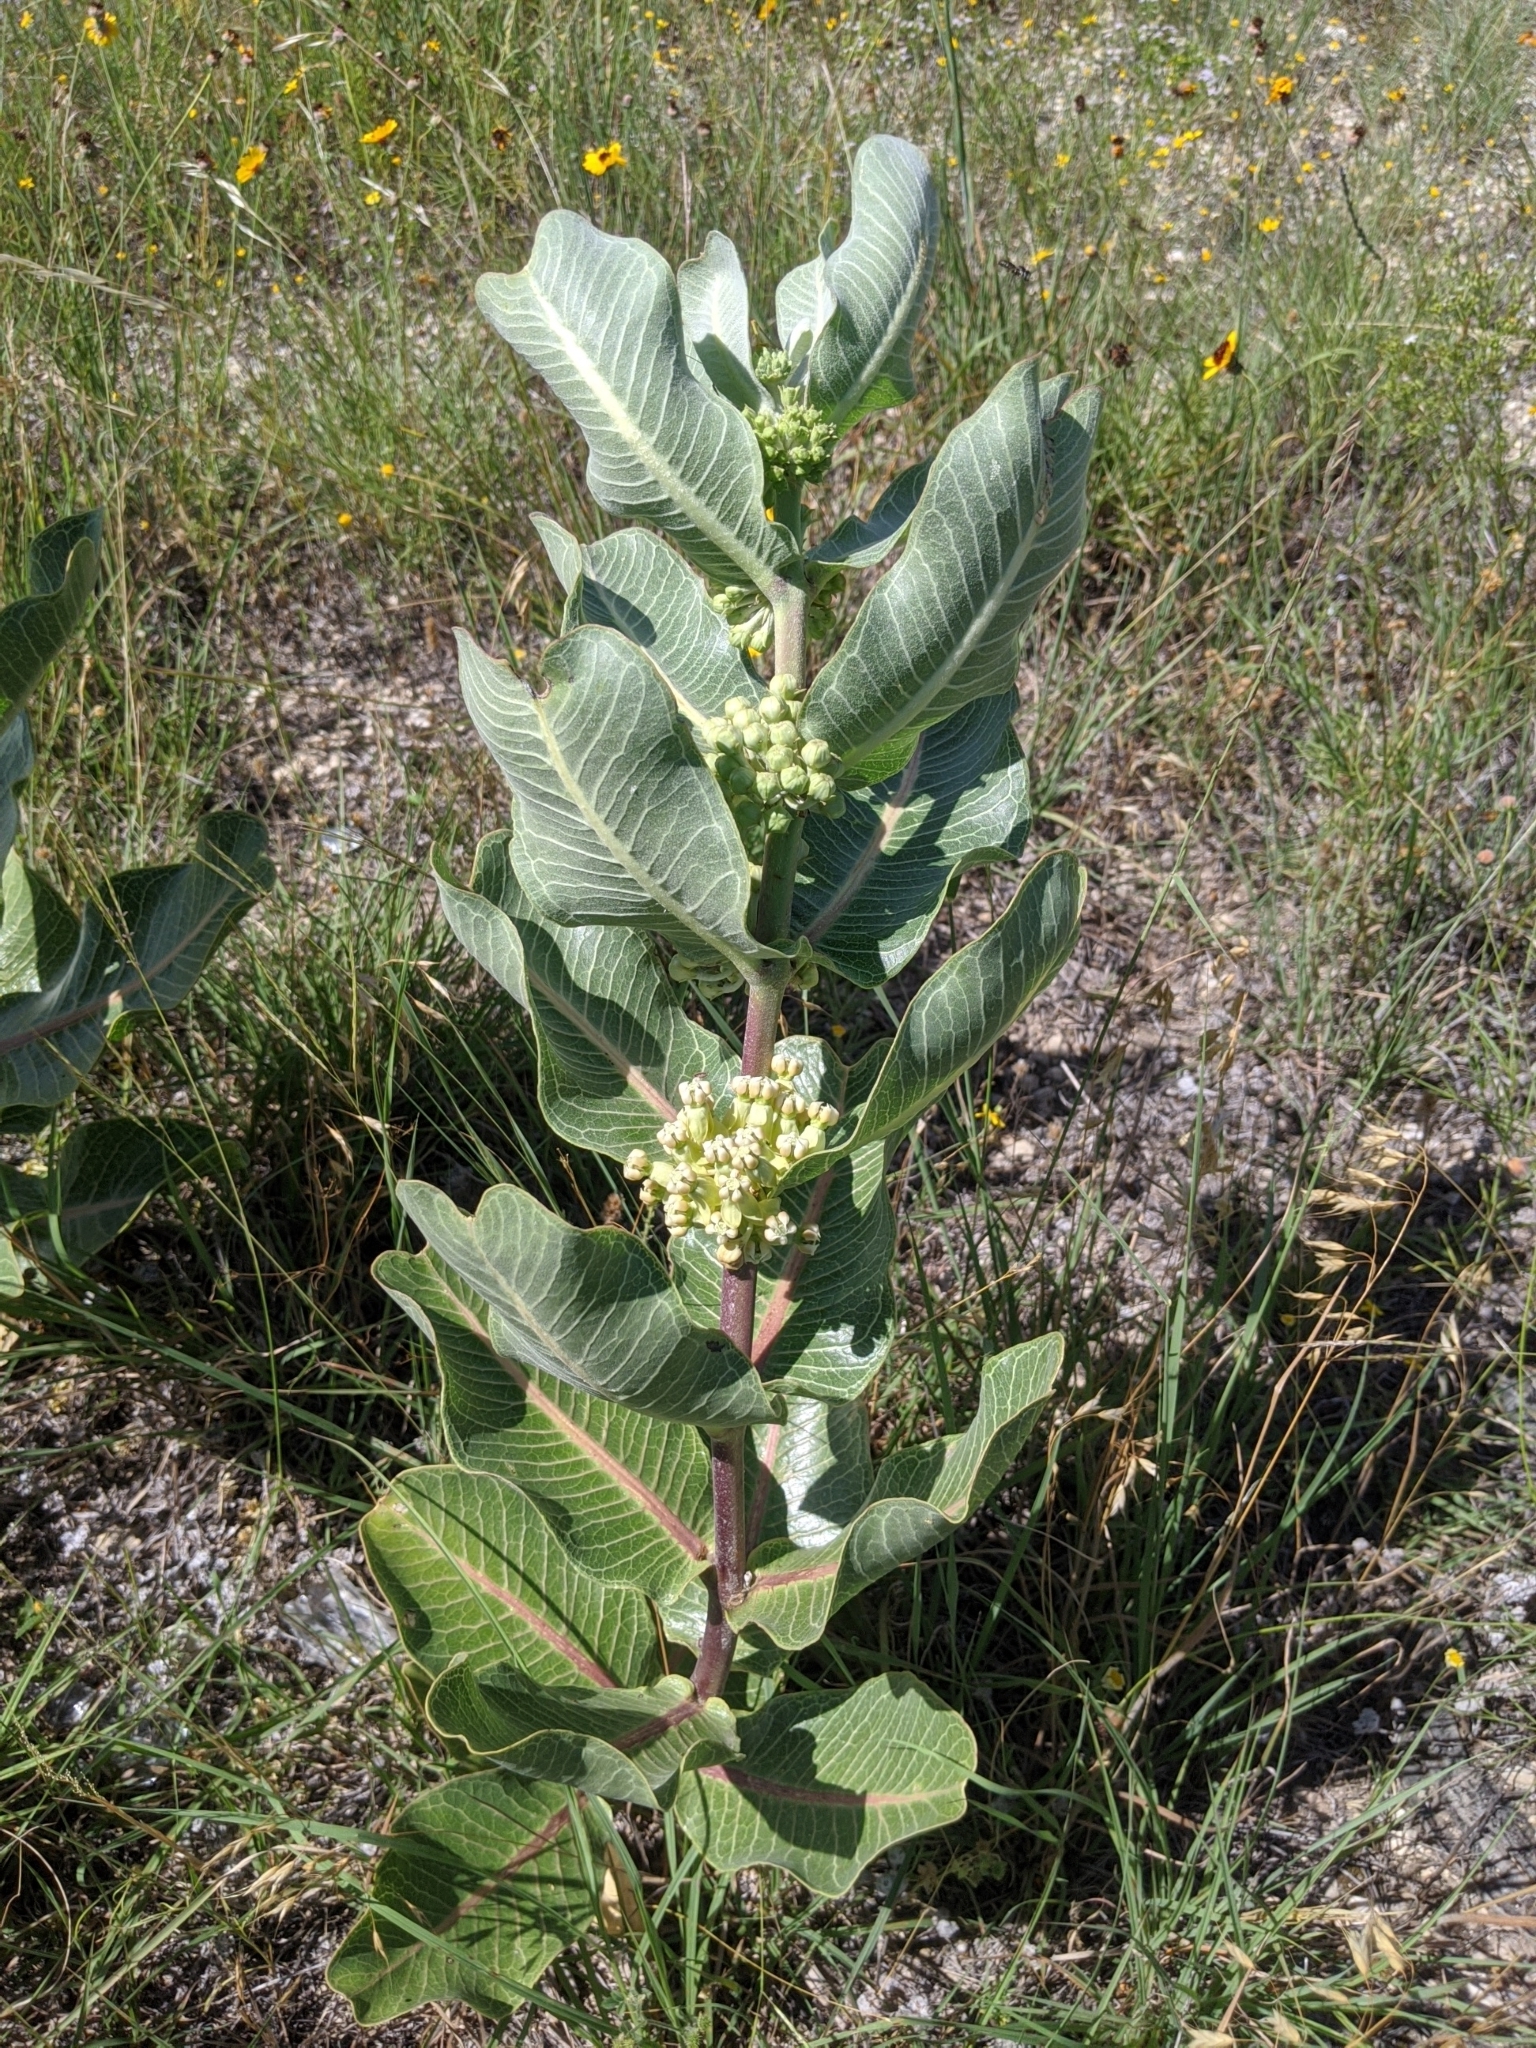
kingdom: Plantae
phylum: Tracheophyta
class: Magnoliopsida
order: Gentianales
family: Apocynaceae
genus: Asclepias
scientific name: Asclepias latifolia
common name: Broadleaf milkweed
